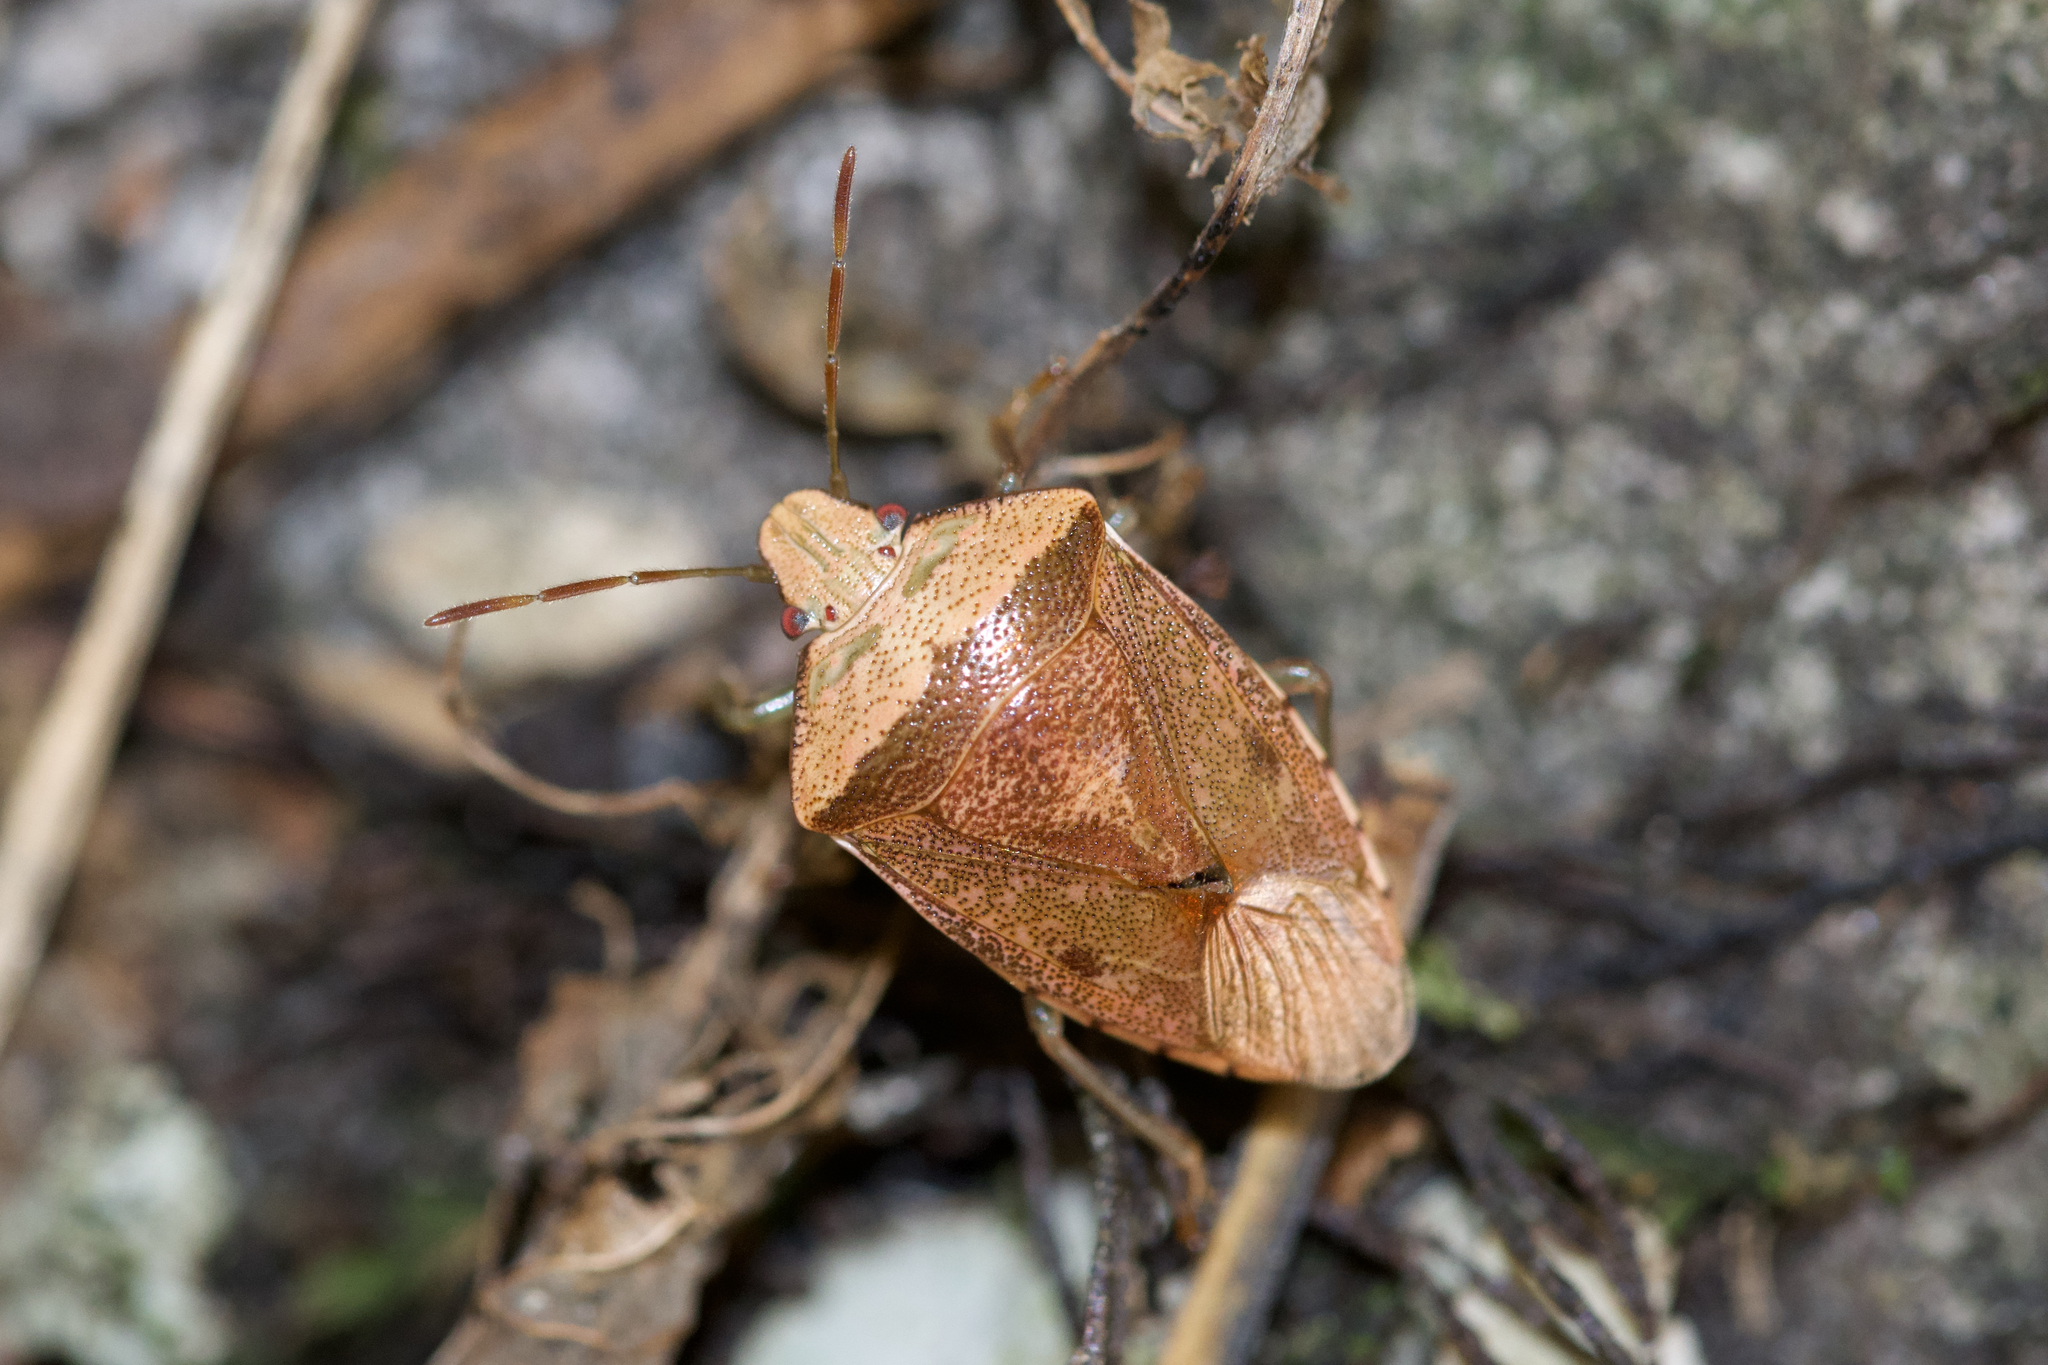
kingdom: Animalia
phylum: Arthropoda
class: Insecta
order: Hemiptera
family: Pentatomidae
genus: Banasa
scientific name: Banasa calva
